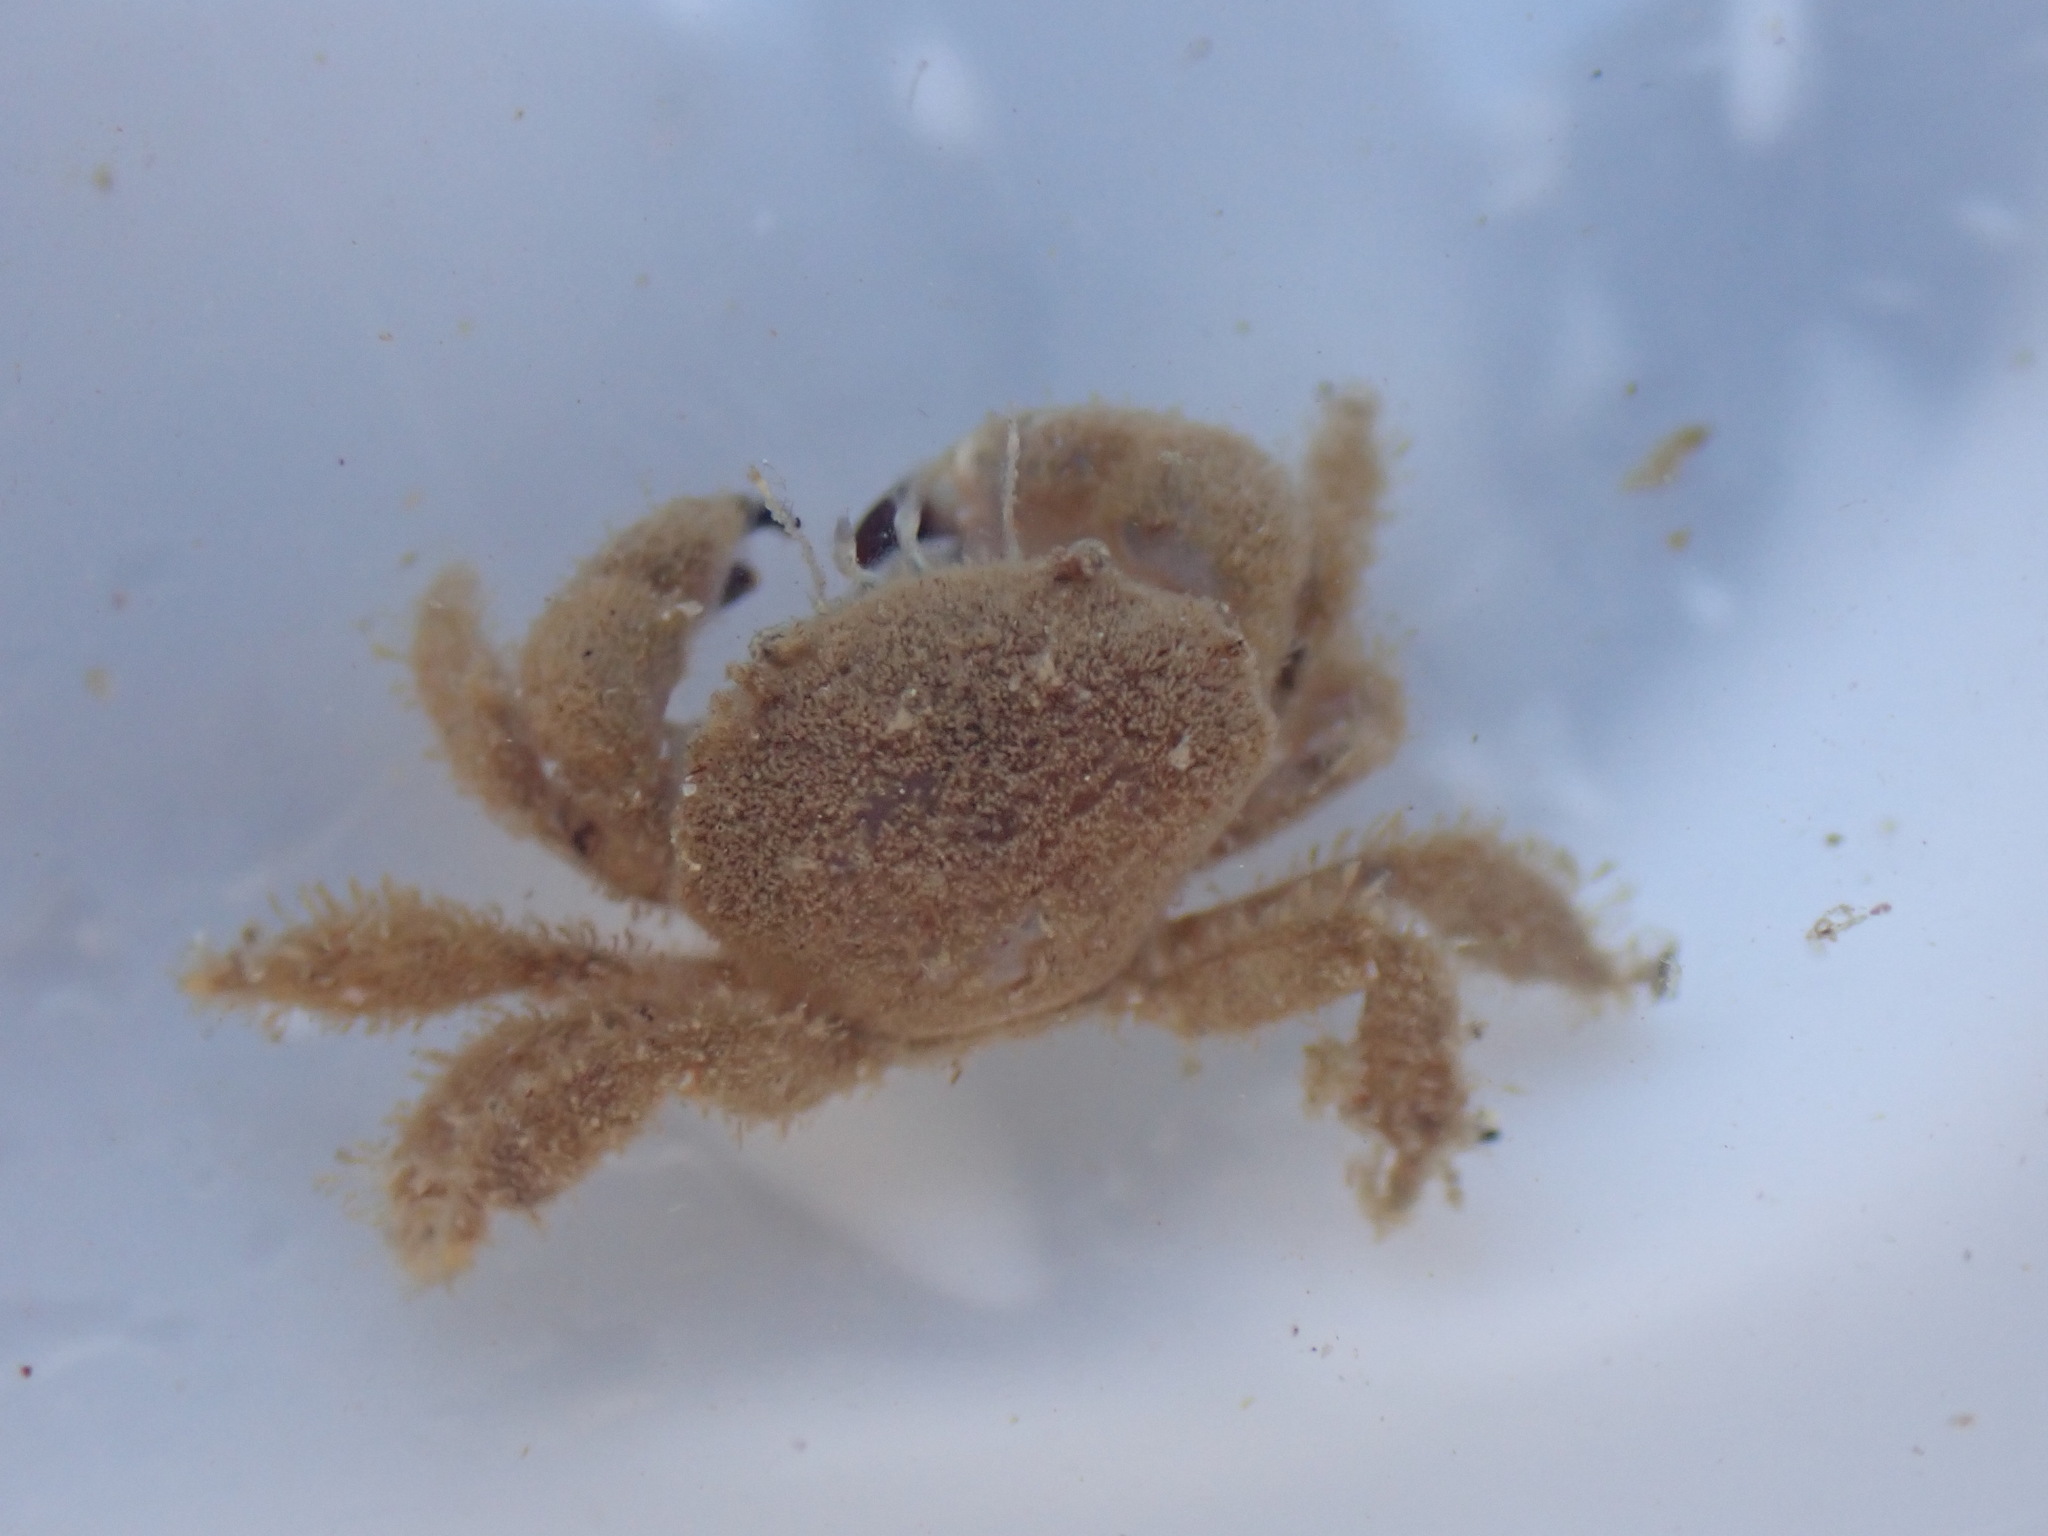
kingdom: Animalia
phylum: Arthropoda
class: Malacostraca
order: Decapoda
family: Pilumnidae
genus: Pilumnus
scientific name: Pilumnus lumpinus
